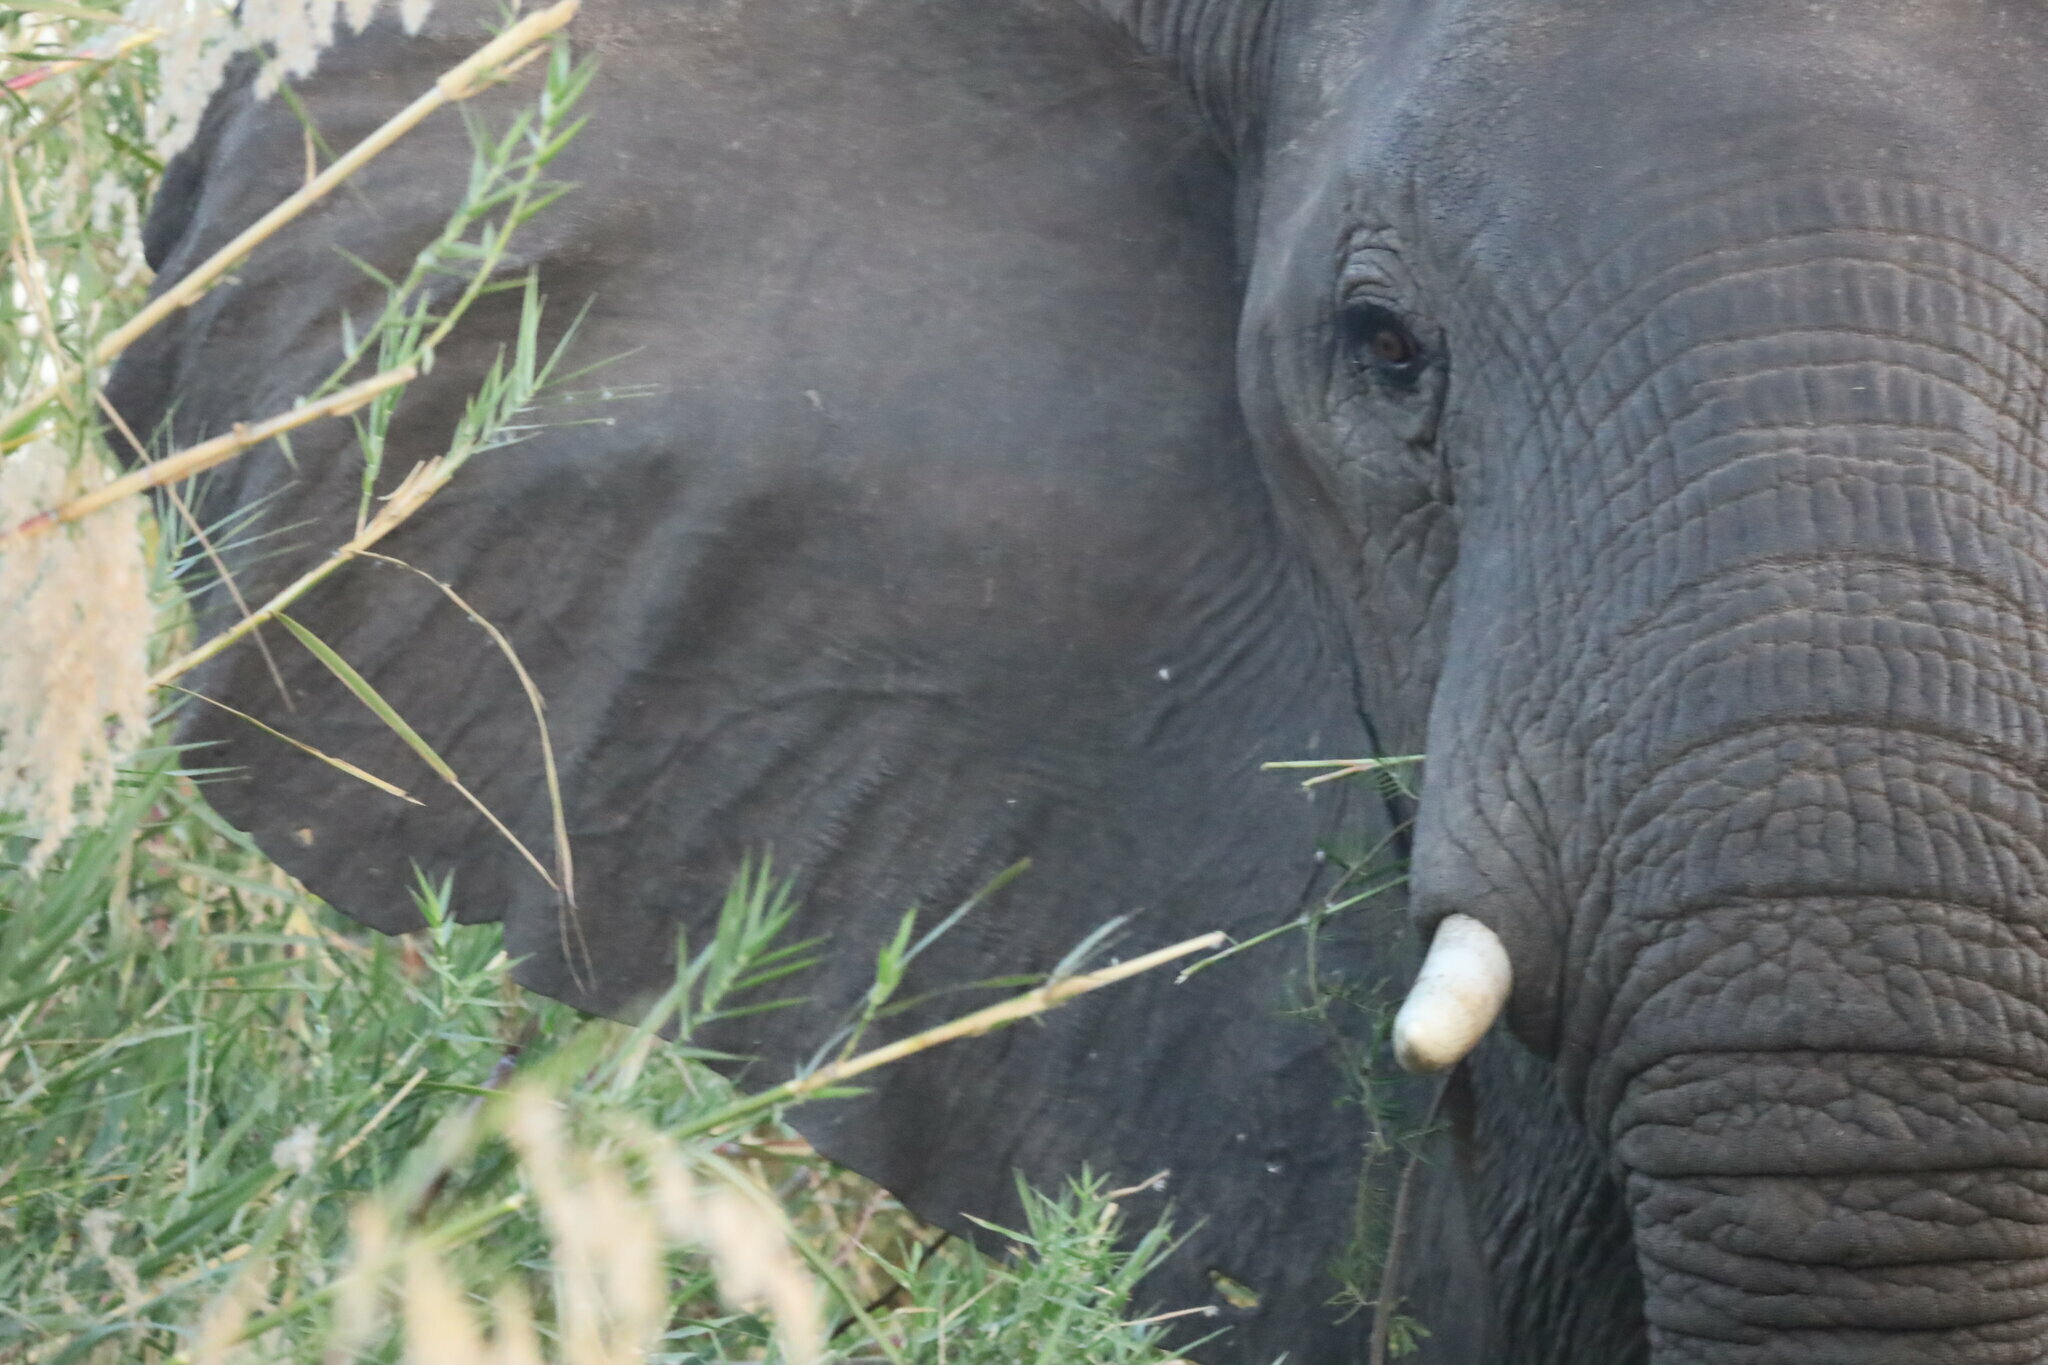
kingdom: Animalia
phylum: Chordata
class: Mammalia
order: Proboscidea
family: Elephantidae
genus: Loxodonta
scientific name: Loxodonta africana
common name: African elephant
